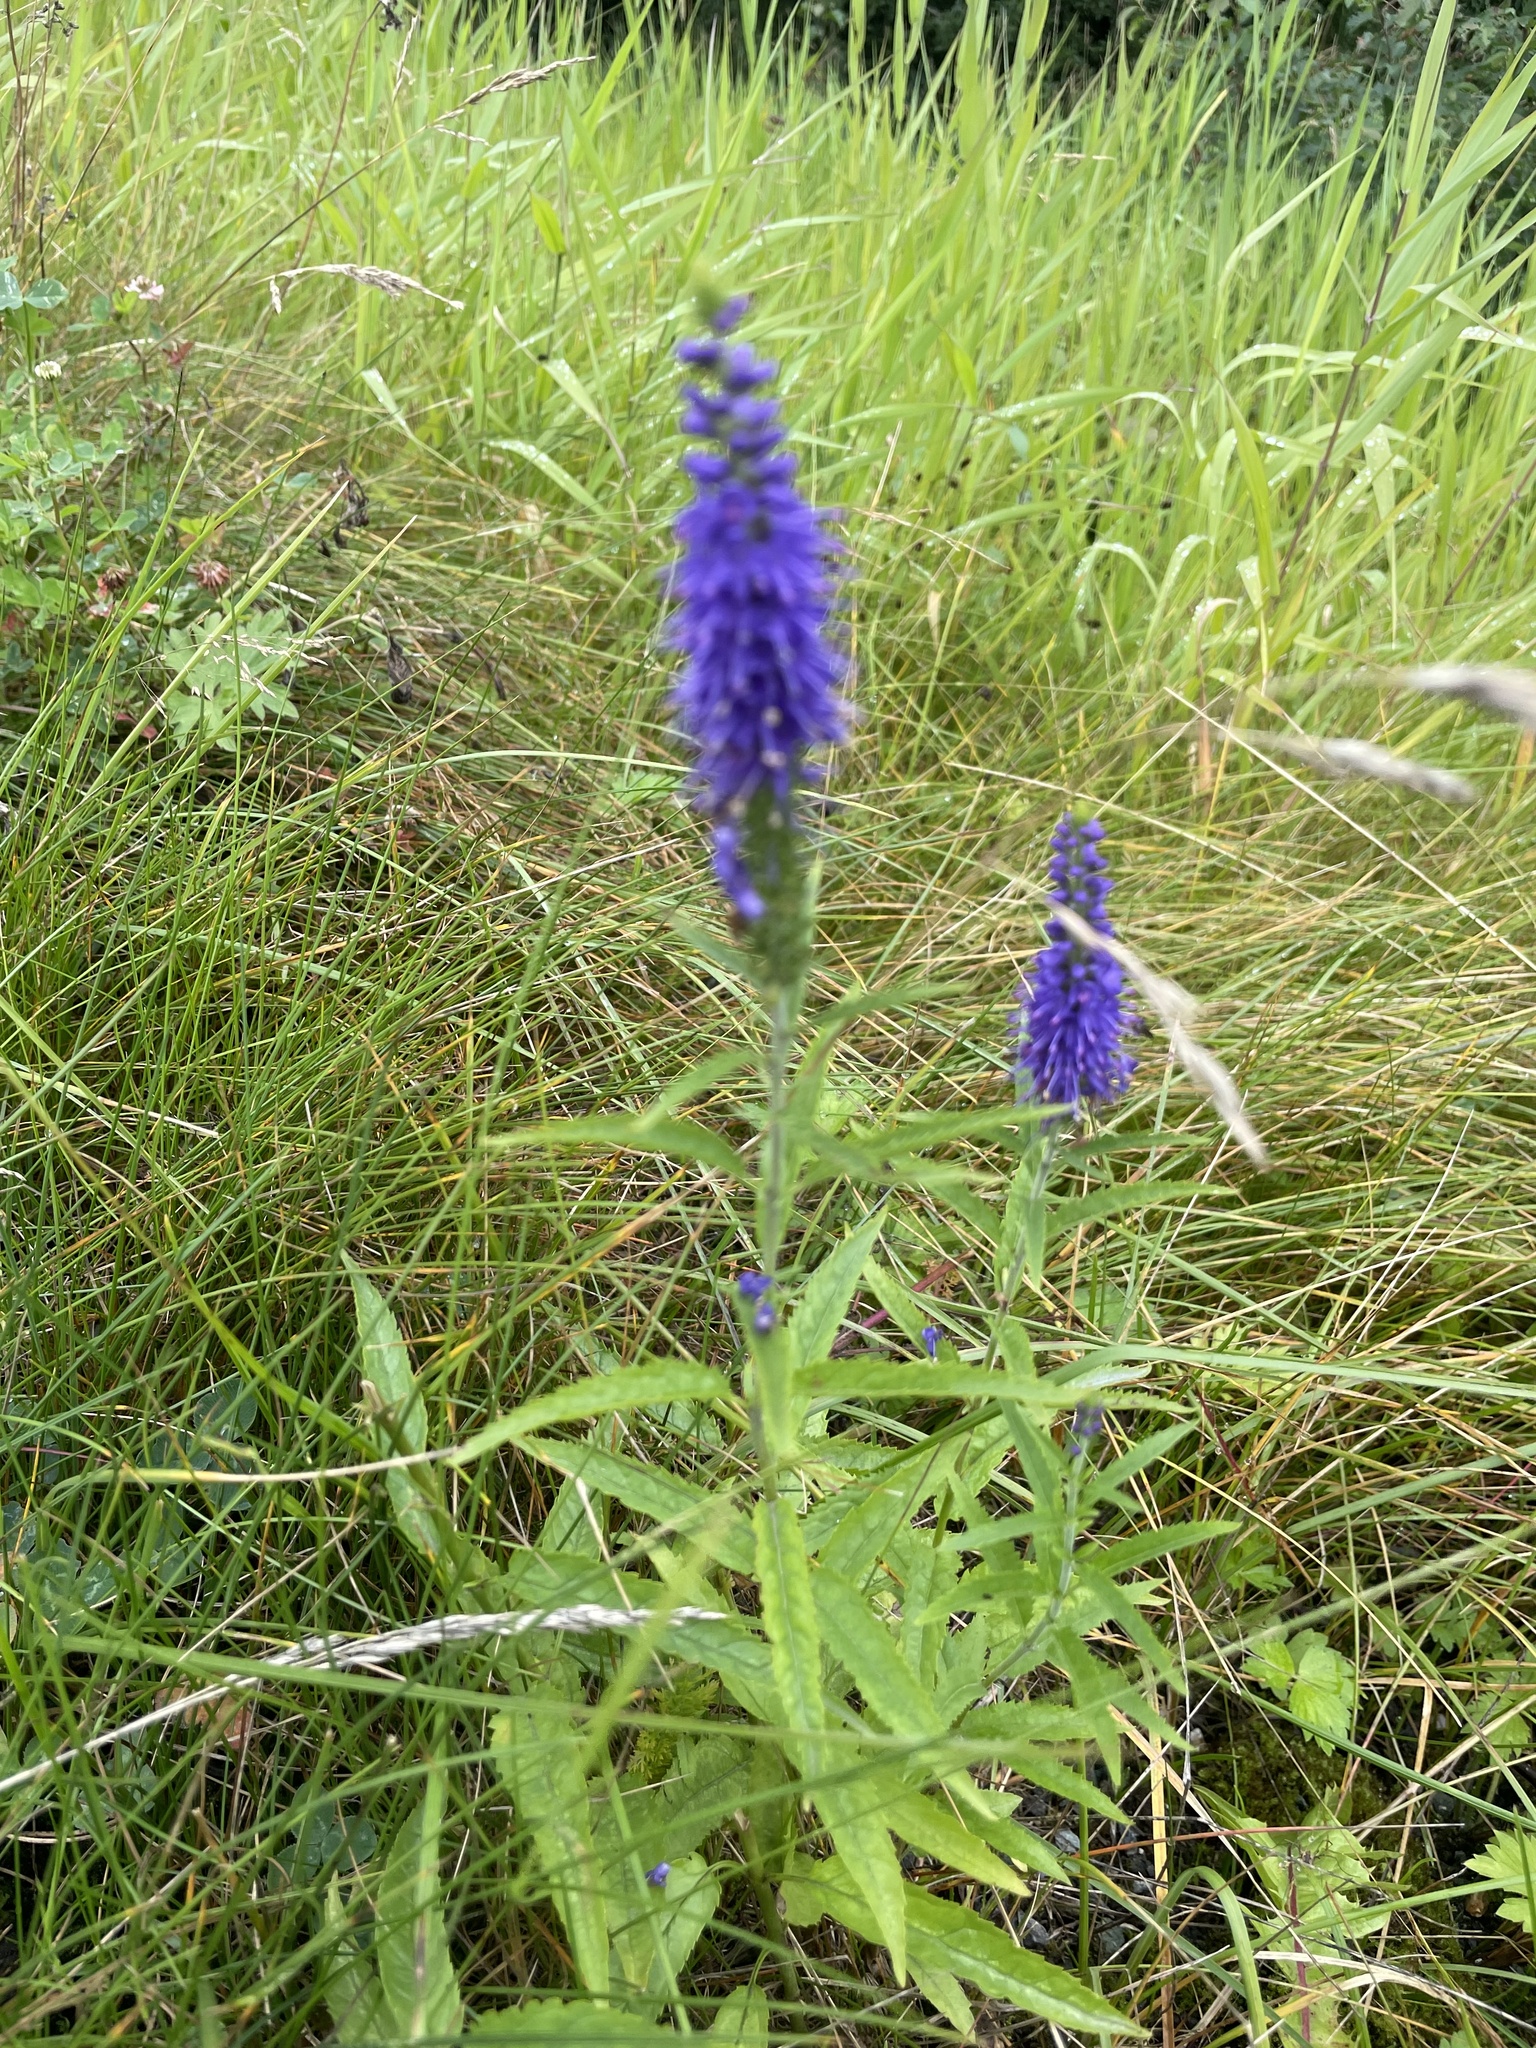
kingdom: Plantae
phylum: Tracheophyta
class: Magnoliopsida
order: Lamiales
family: Plantaginaceae
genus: Veronica
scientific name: Veronica longifolia
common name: Garden speedwell
